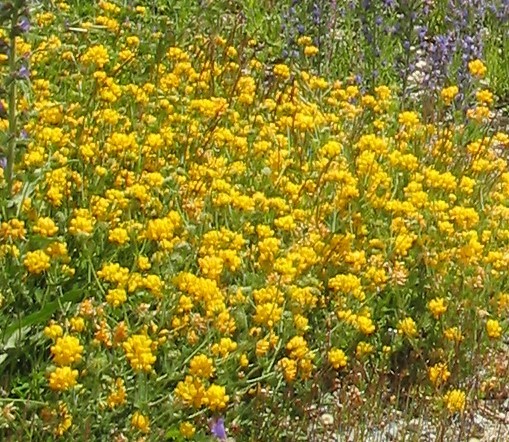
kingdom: Plantae
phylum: Tracheophyta
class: Magnoliopsida
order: Fabales
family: Fabaceae
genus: Lotus
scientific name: Lotus pedunculatus
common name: Greater birdsfoot-trefoil
